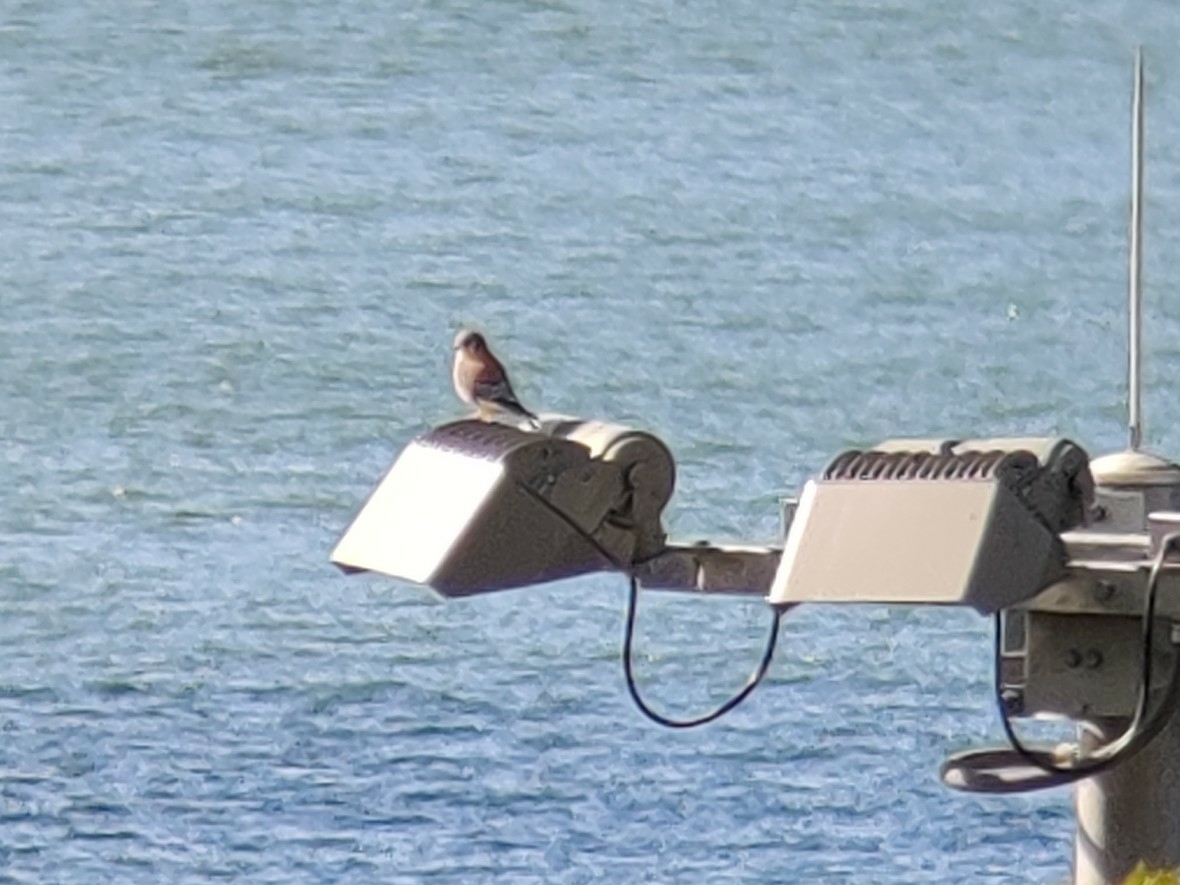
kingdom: Animalia
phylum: Chordata
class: Aves
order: Falconiformes
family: Falconidae
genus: Falco
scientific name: Falco sparverius
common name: American kestrel
